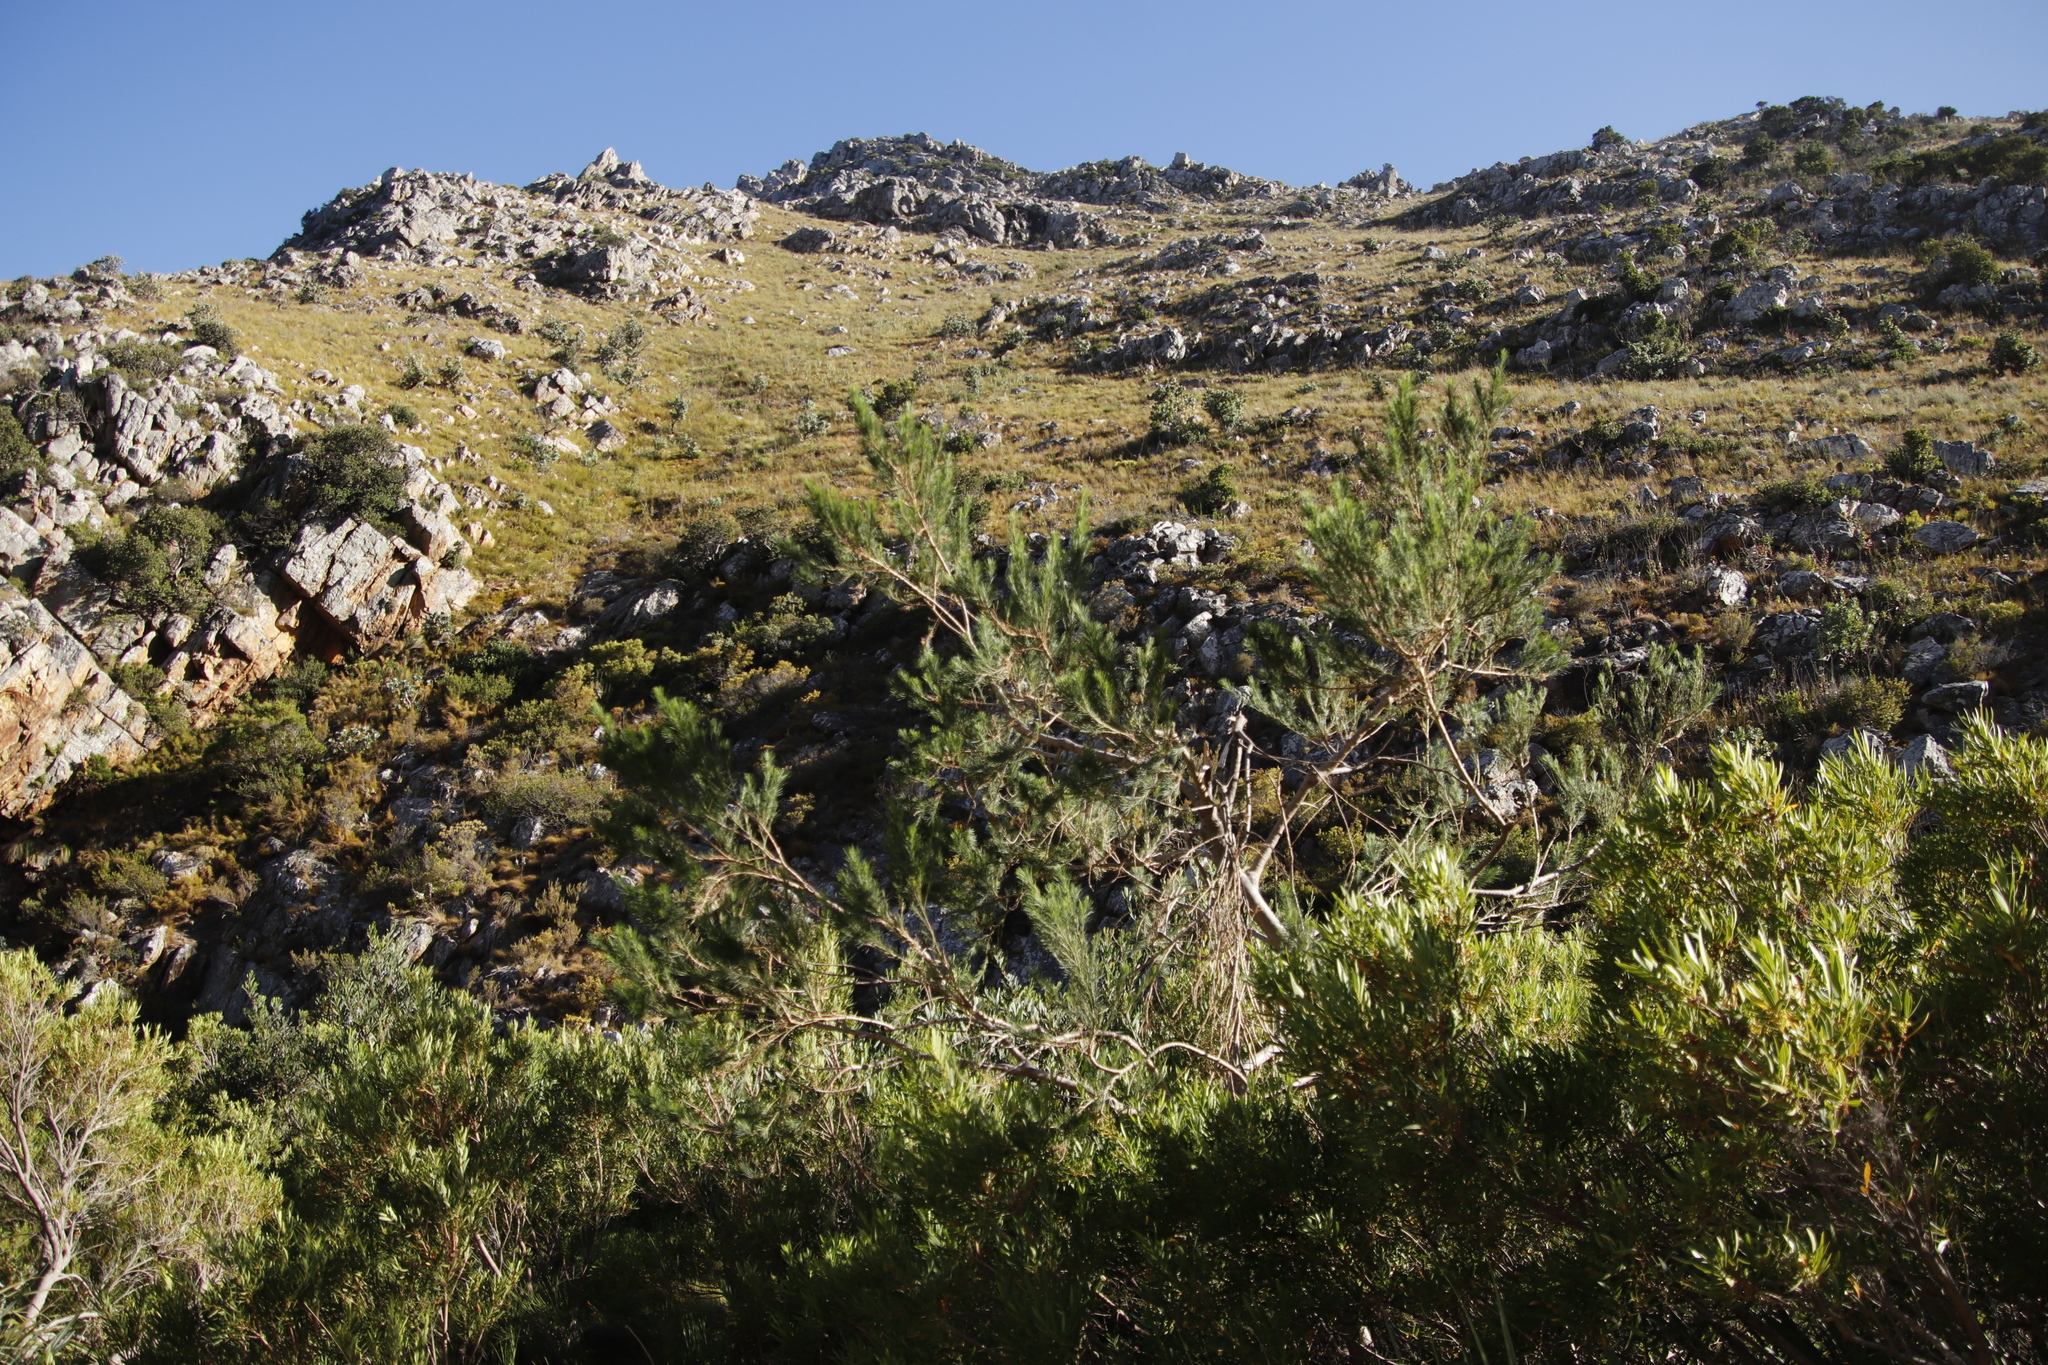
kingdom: Plantae
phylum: Tracheophyta
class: Magnoliopsida
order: Fabales
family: Fabaceae
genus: Psoralea
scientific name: Psoralea pinnata
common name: African scurfpea
